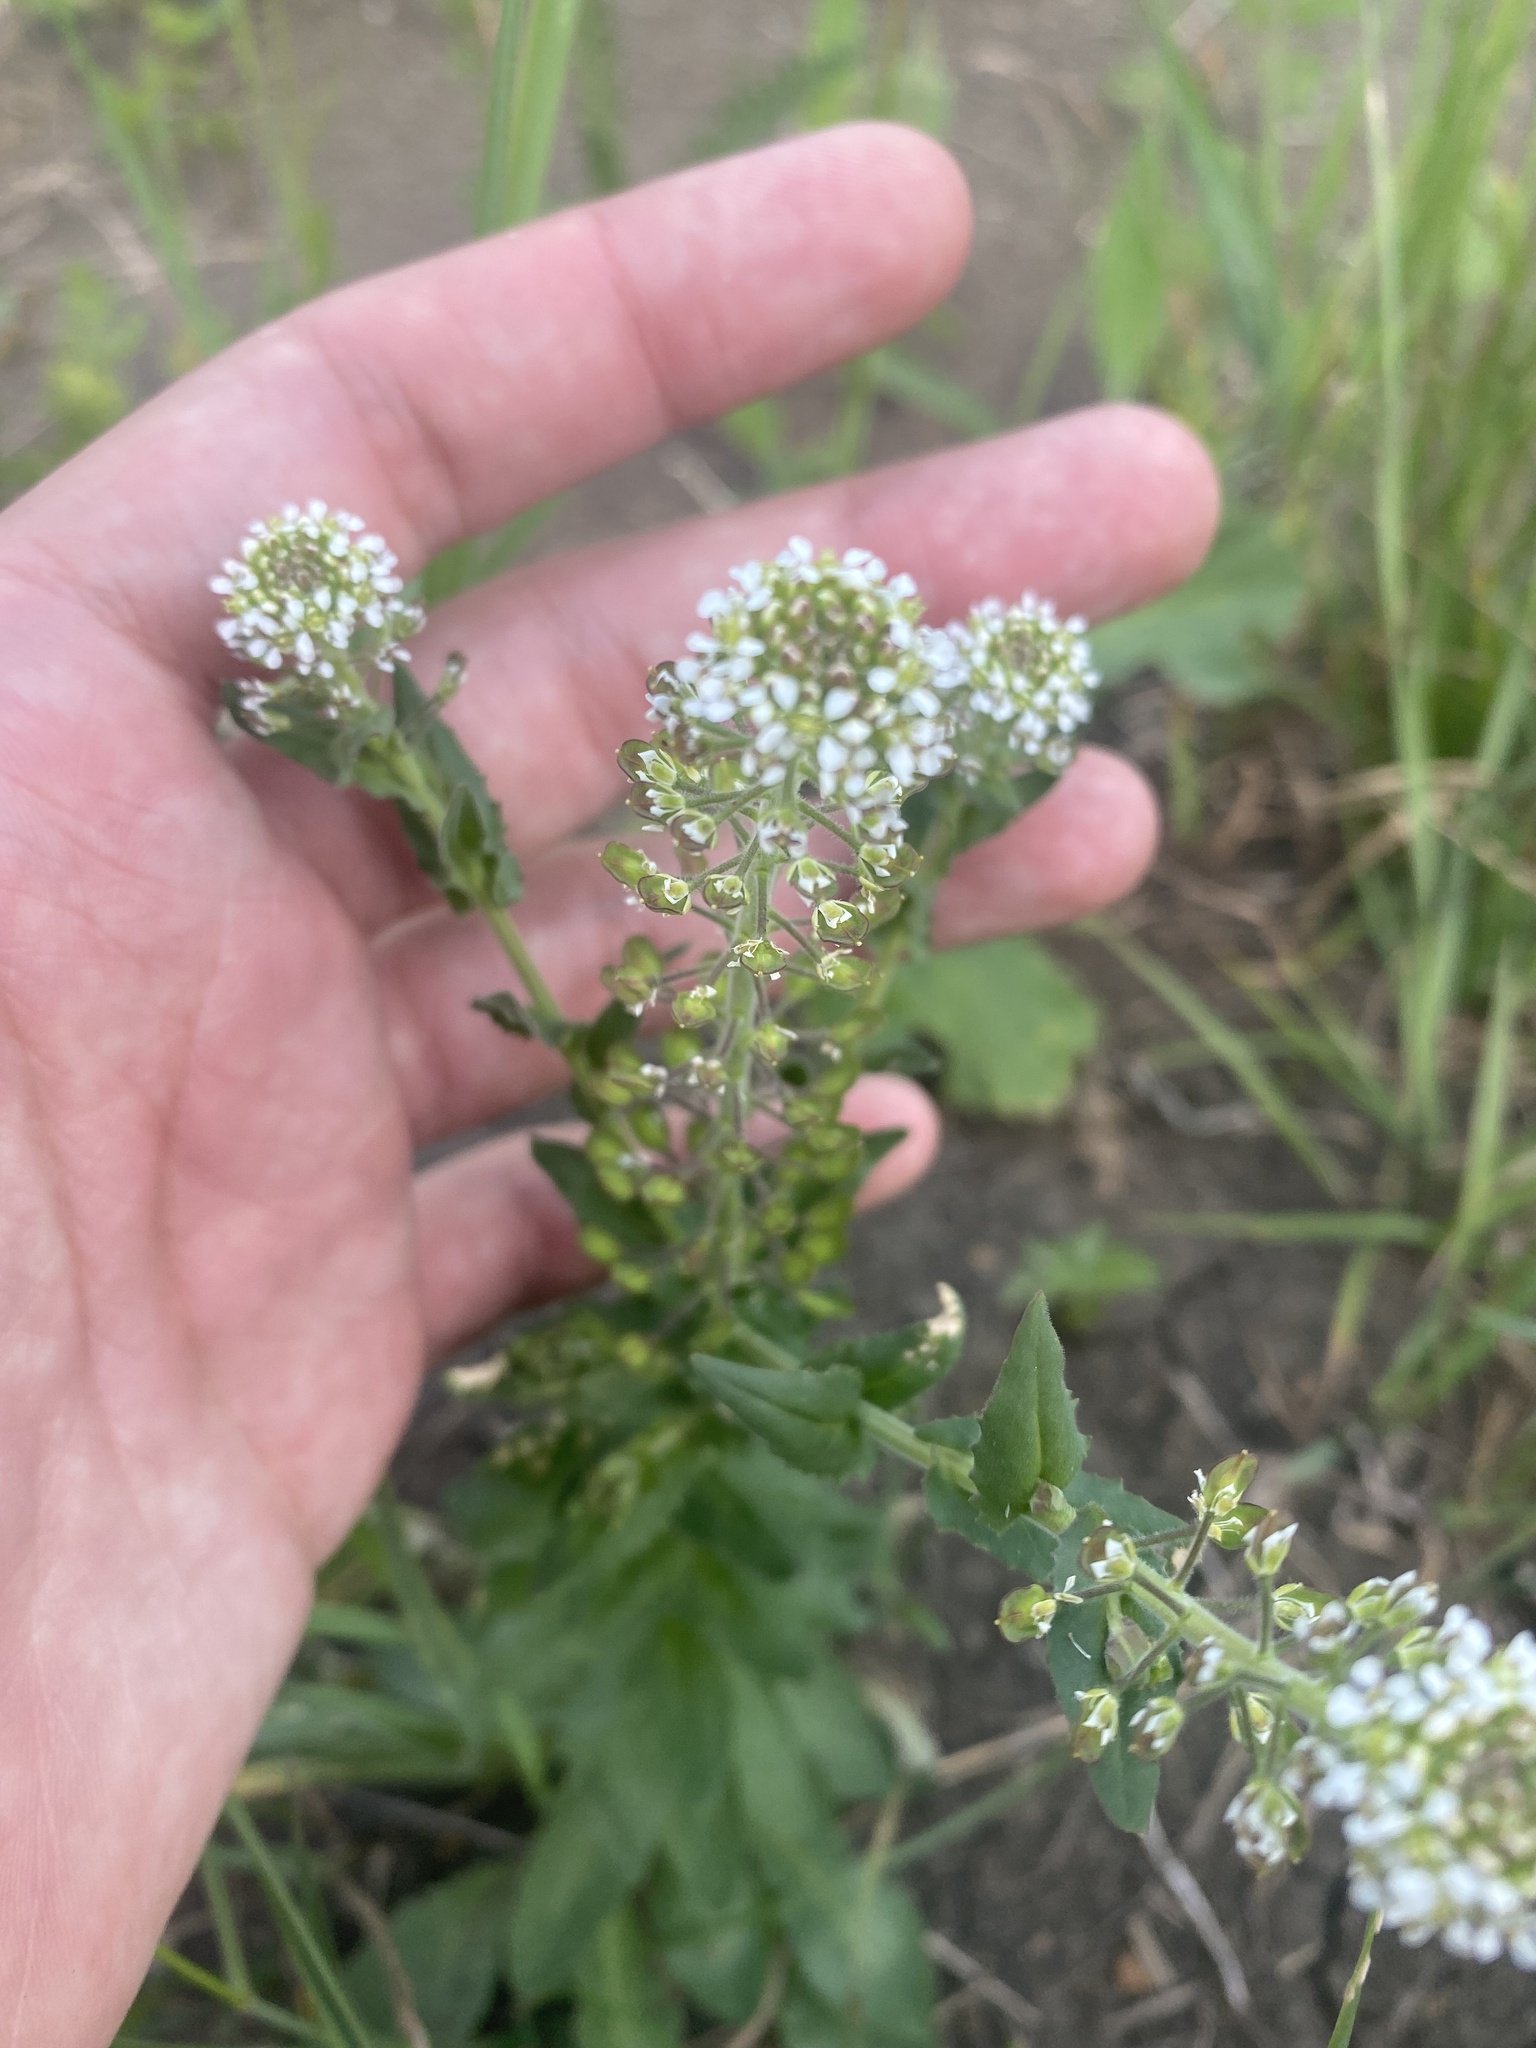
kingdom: Plantae
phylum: Tracheophyta
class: Magnoliopsida
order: Brassicales
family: Brassicaceae
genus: Lepidium
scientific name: Lepidium campestre
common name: Field pepperwort
